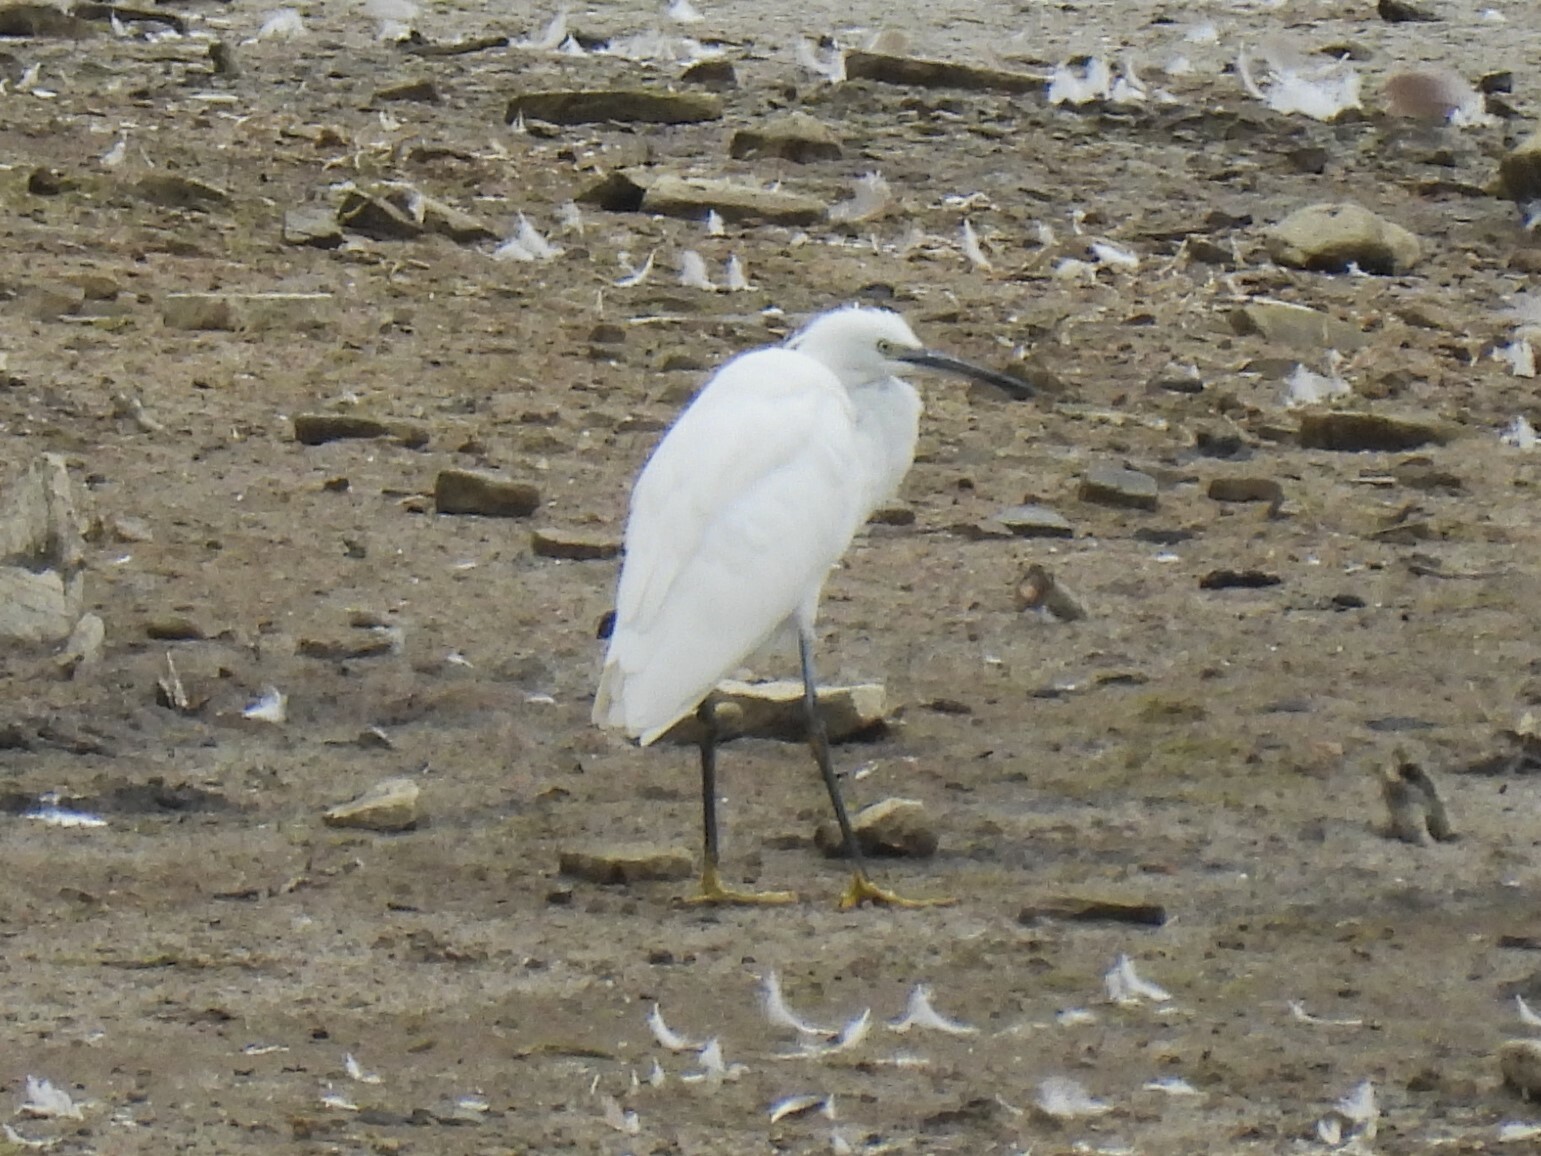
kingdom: Animalia
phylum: Chordata
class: Aves
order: Pelecaniformes
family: Ardeidae
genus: Egretta
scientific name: Egretta garzetta
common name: Little egret
